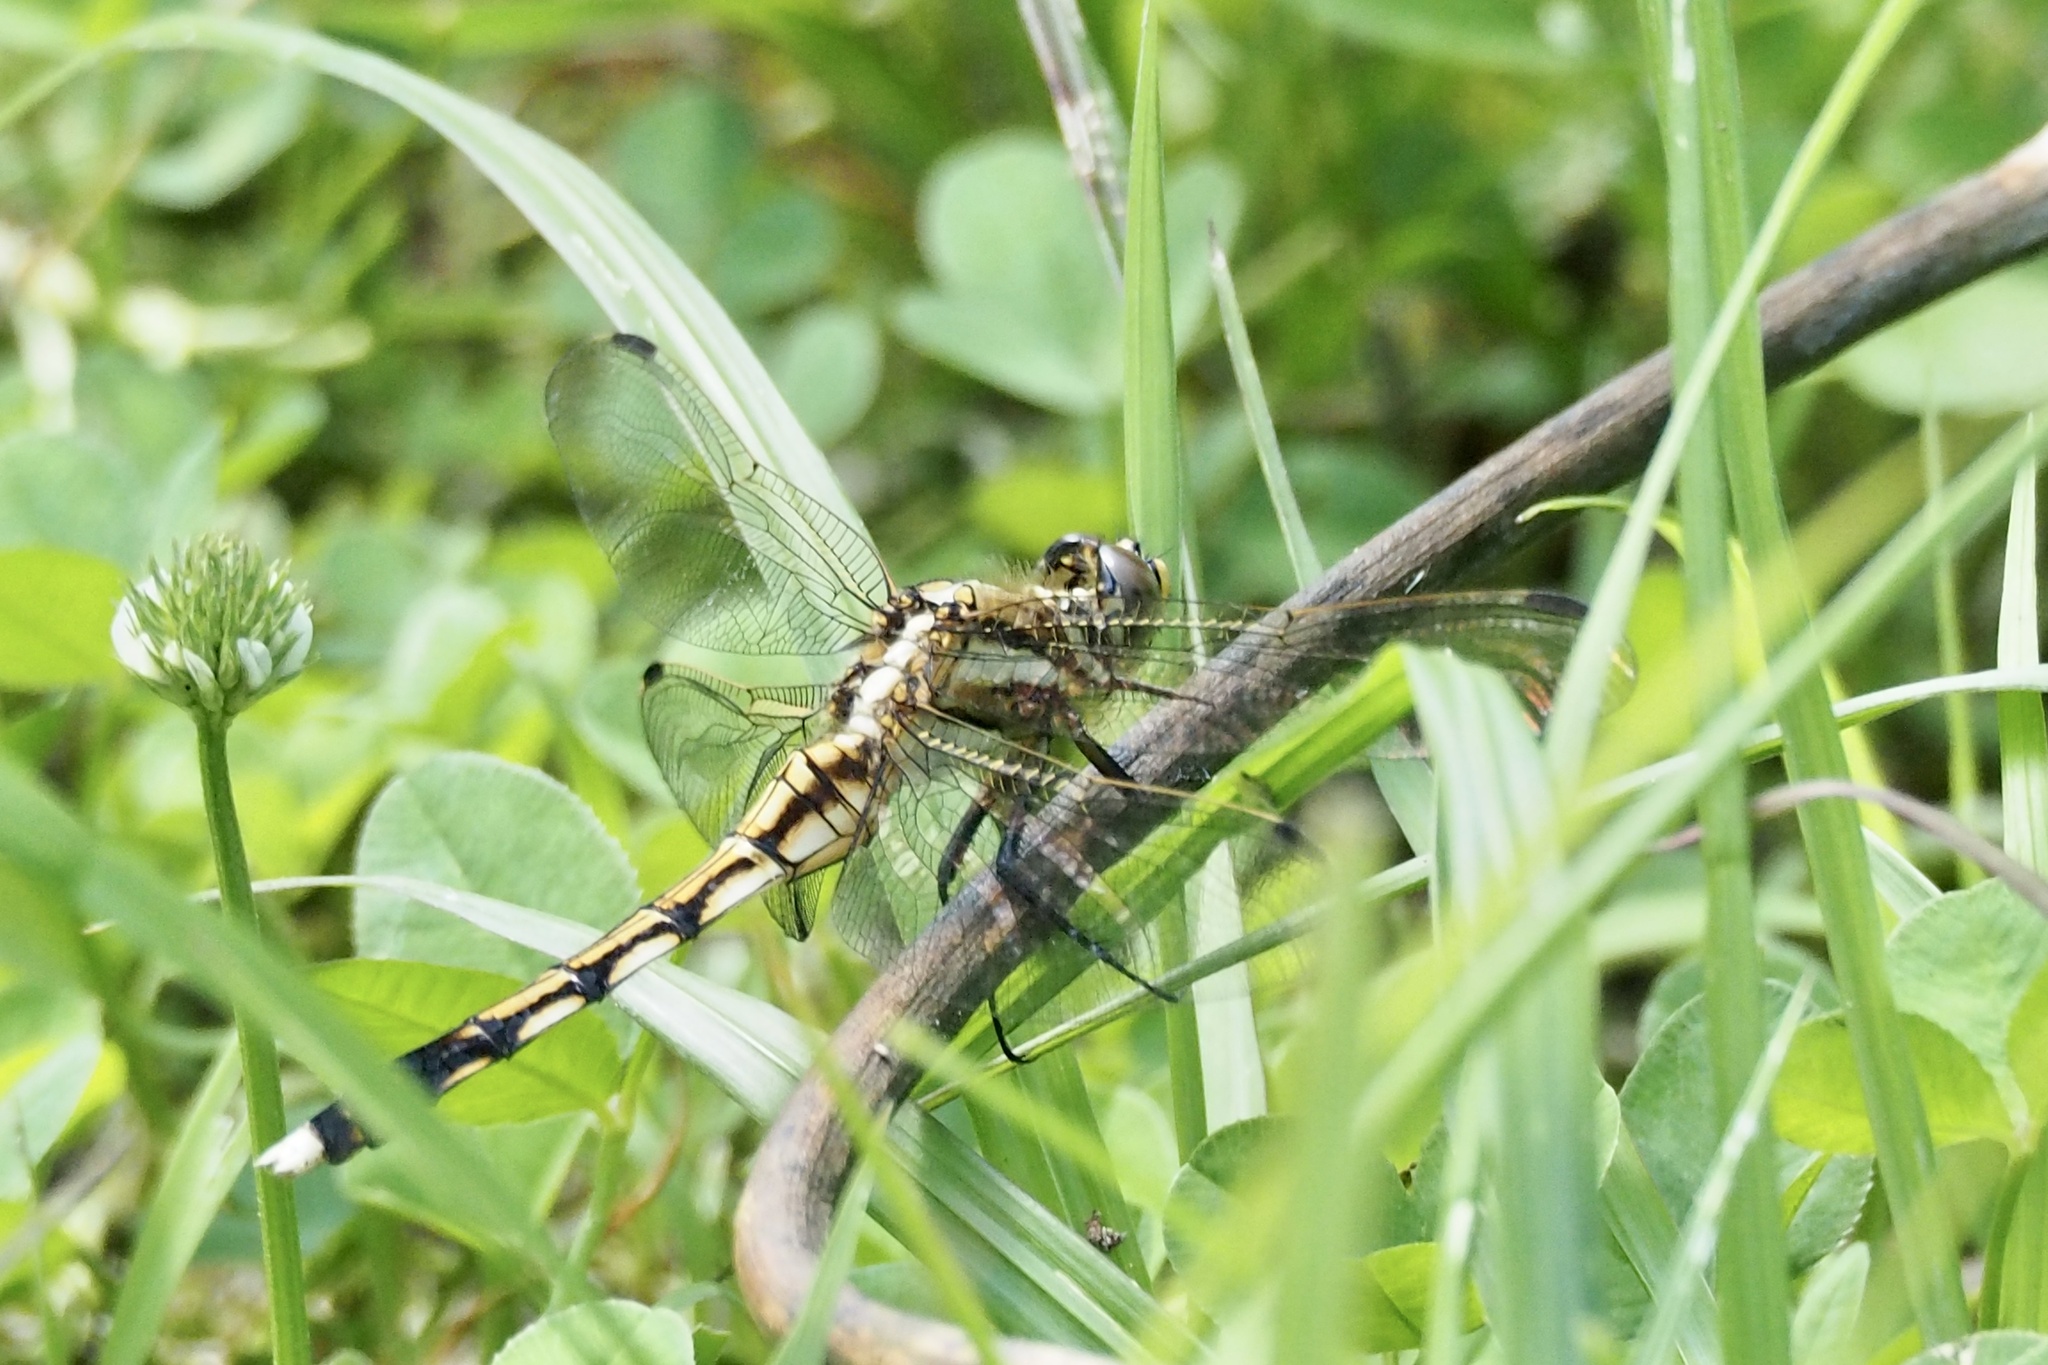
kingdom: Animalia
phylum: Arthropoda
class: Insecta
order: Odonata
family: Libellulidae
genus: Orthetrum
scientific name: Orthetrum albistylum
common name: White-tailed skimmer
